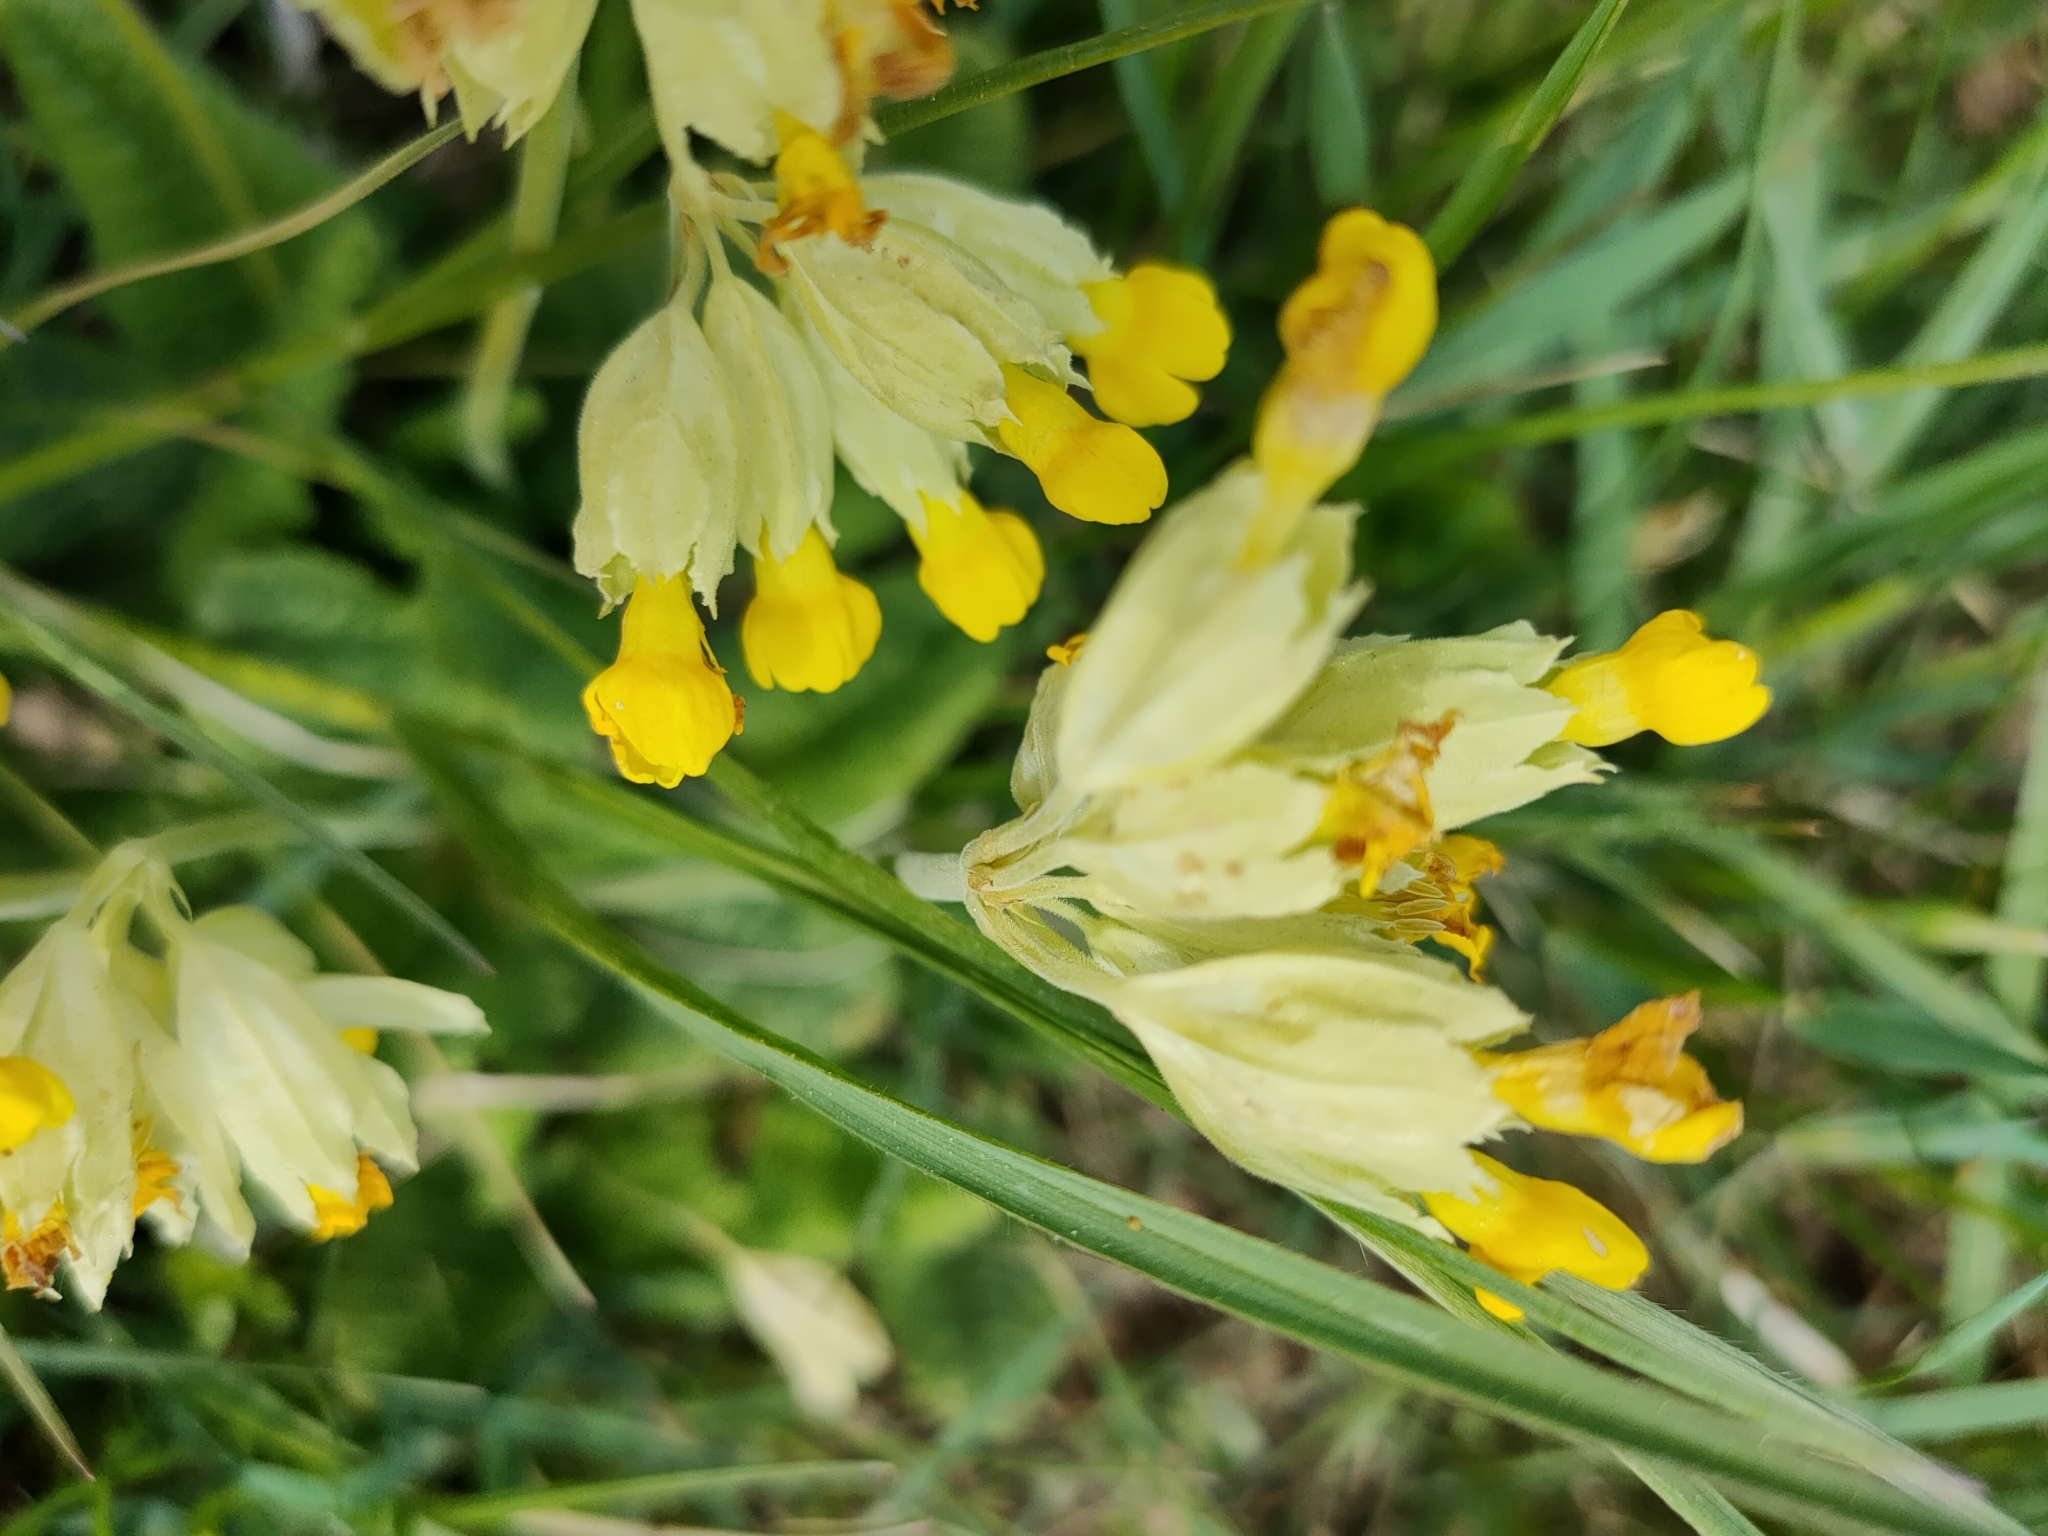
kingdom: Plantae
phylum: Tracheophyta
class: Magnoliopsida
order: Ericales
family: Primulaceae
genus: Primula
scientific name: Primula veris
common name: Cowslip
